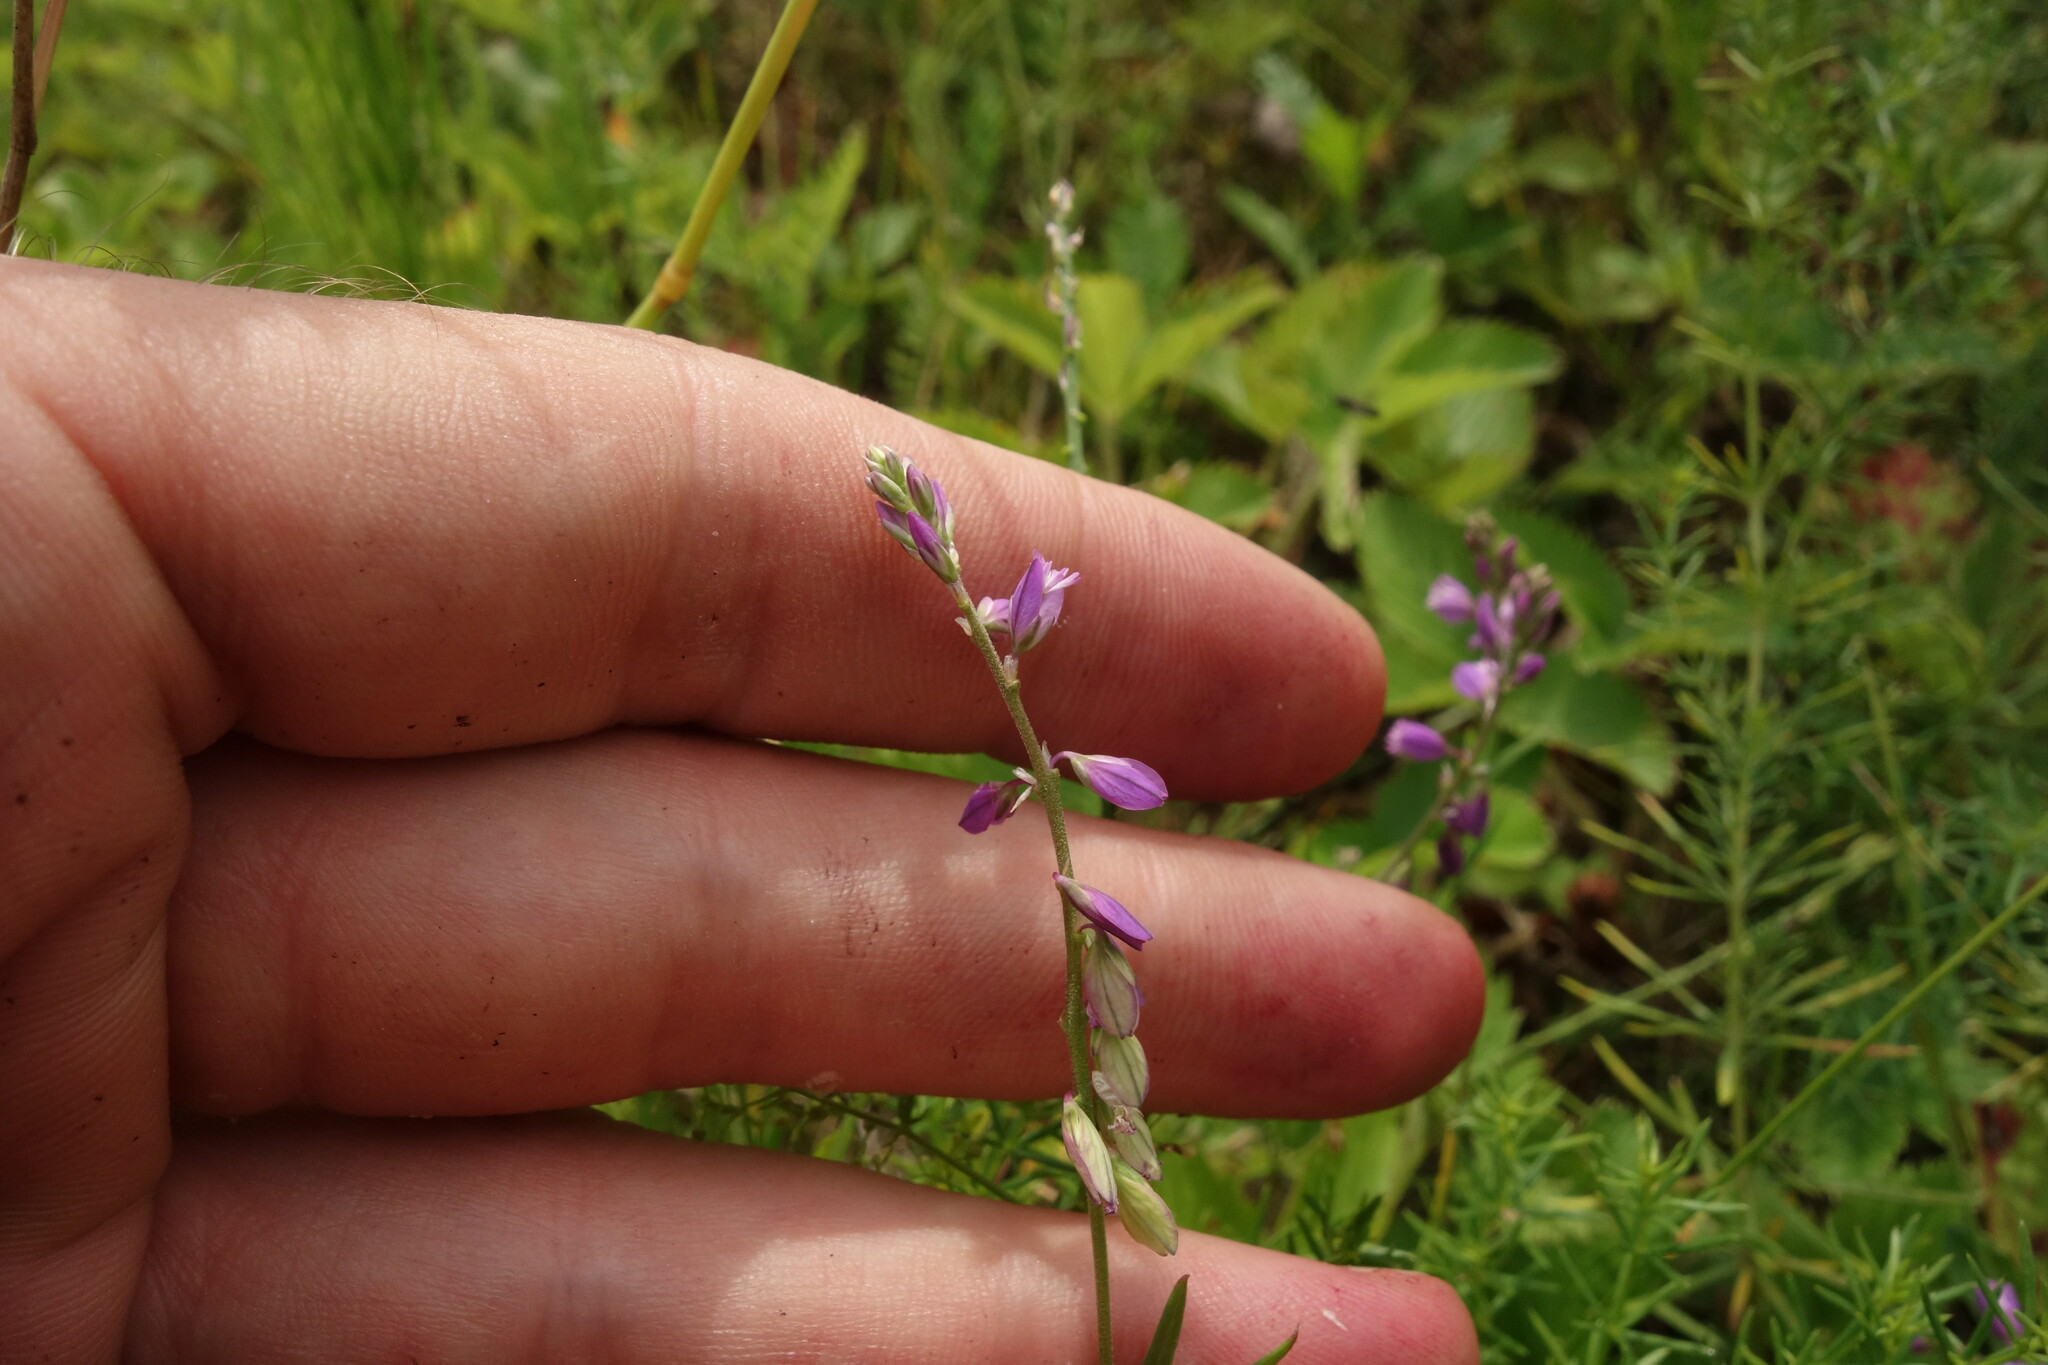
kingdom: Plantae
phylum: Tracheophyta
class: Magnoliopsida
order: Fabales
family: Polygalaceae
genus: Polygala
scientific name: Polygala comosa
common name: Tufted milkwort
